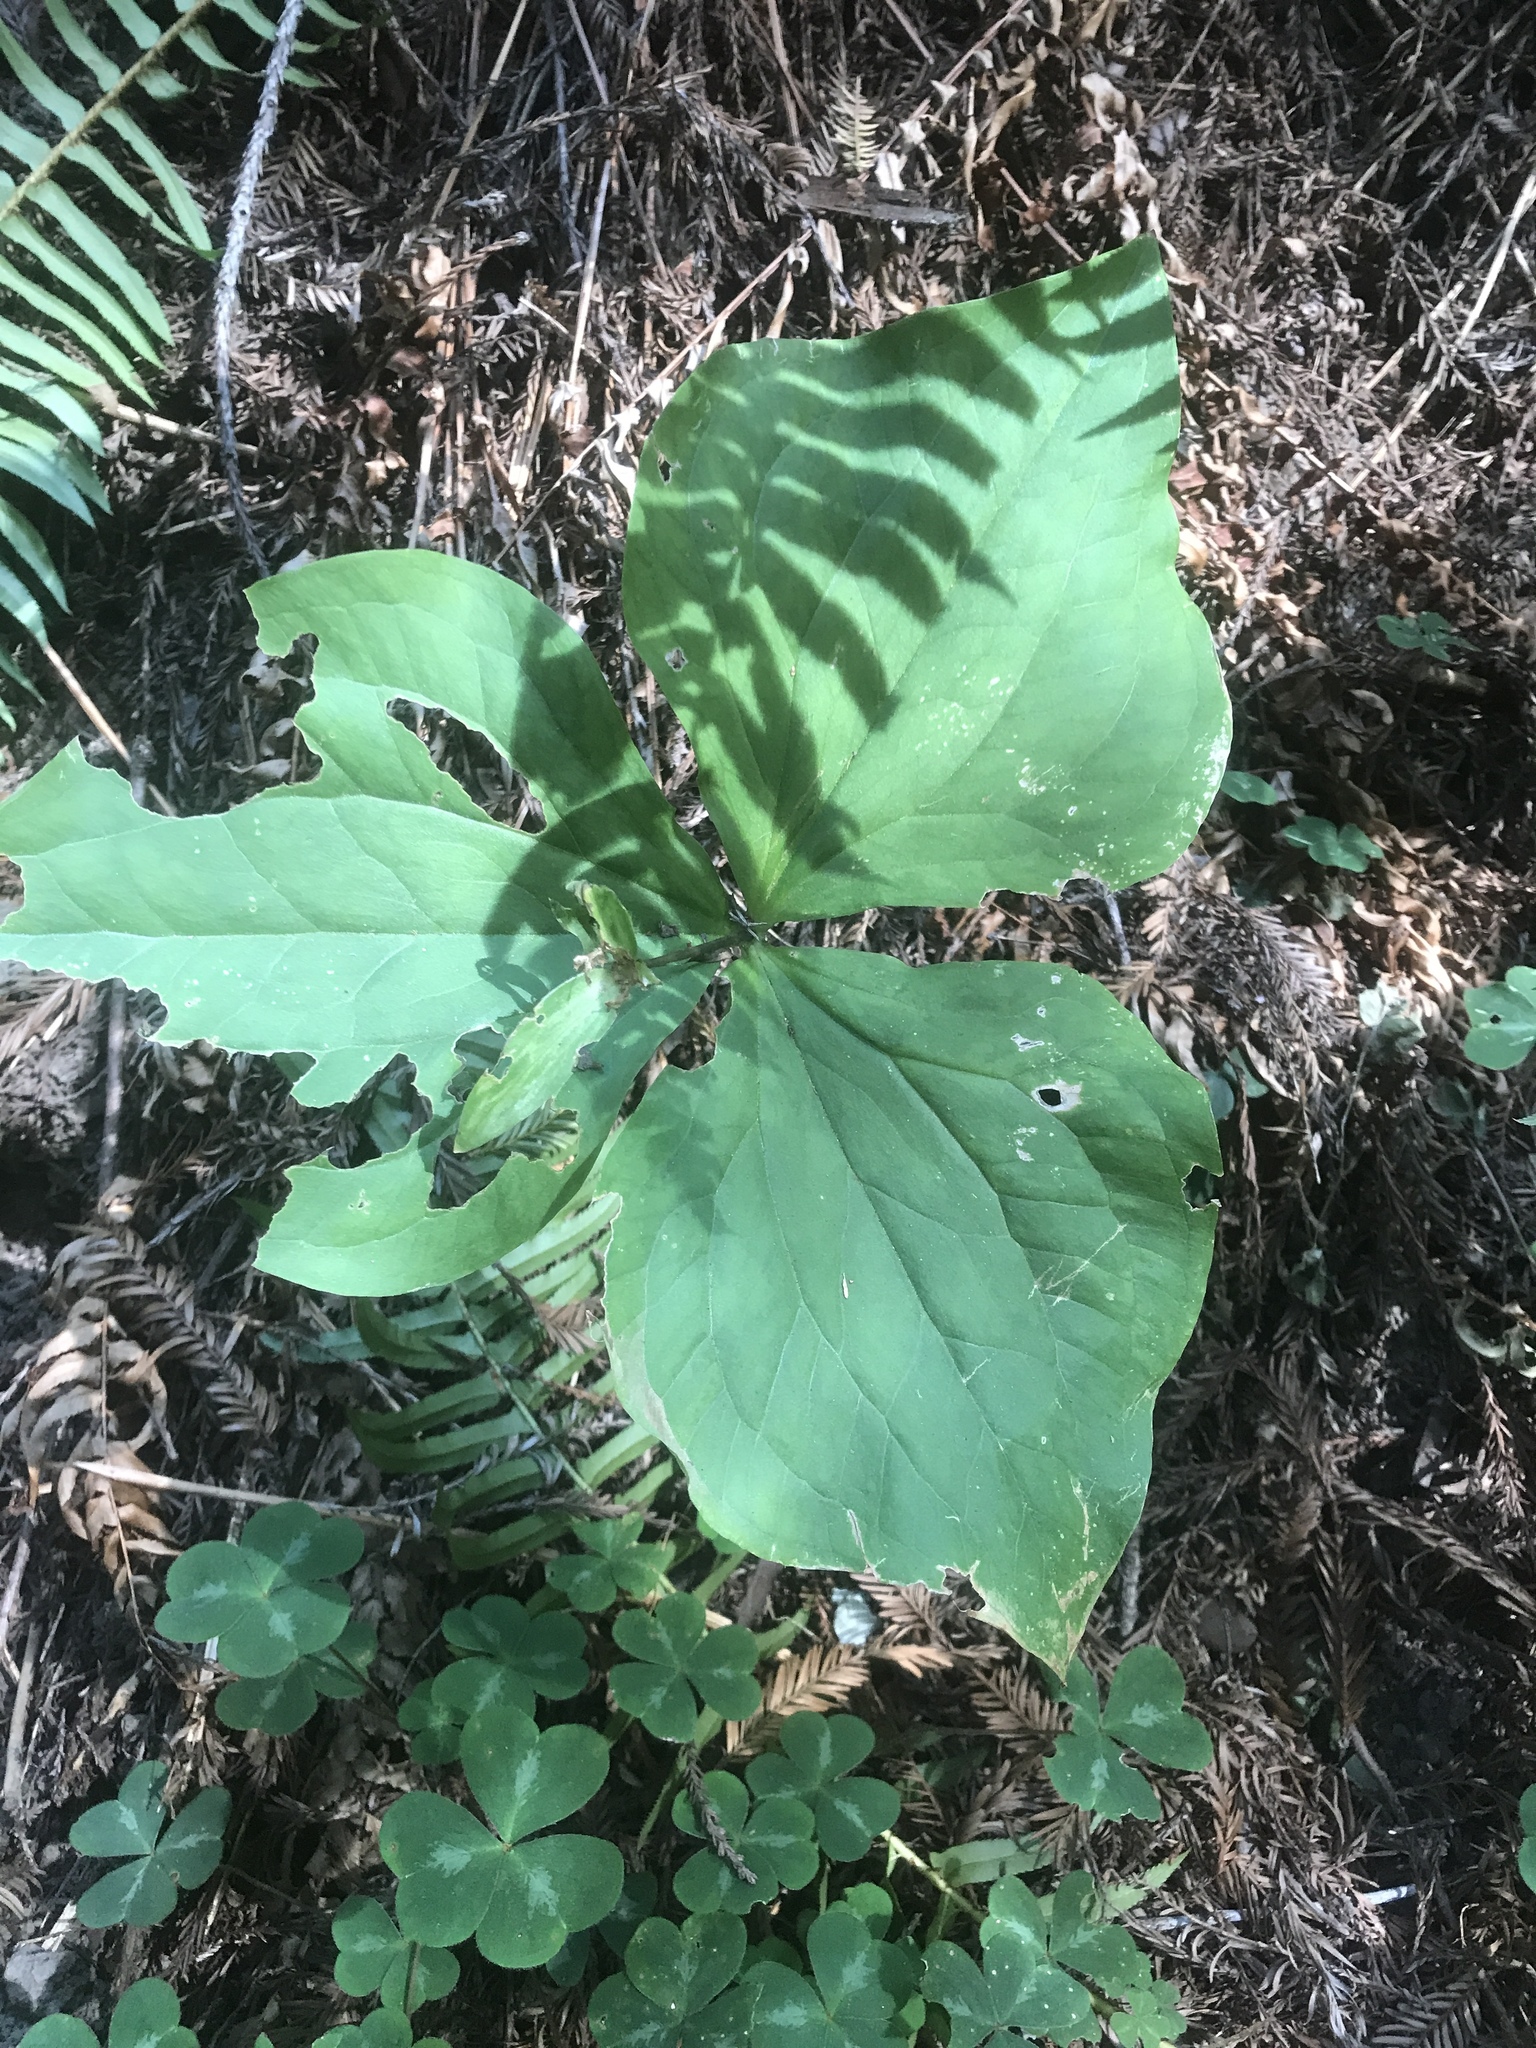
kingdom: Plantae
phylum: Tracheophyta
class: Liliopsida
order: Liliales
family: Melanthiaceae
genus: Trillium
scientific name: Trillium ovatum
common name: Pacific trillium
